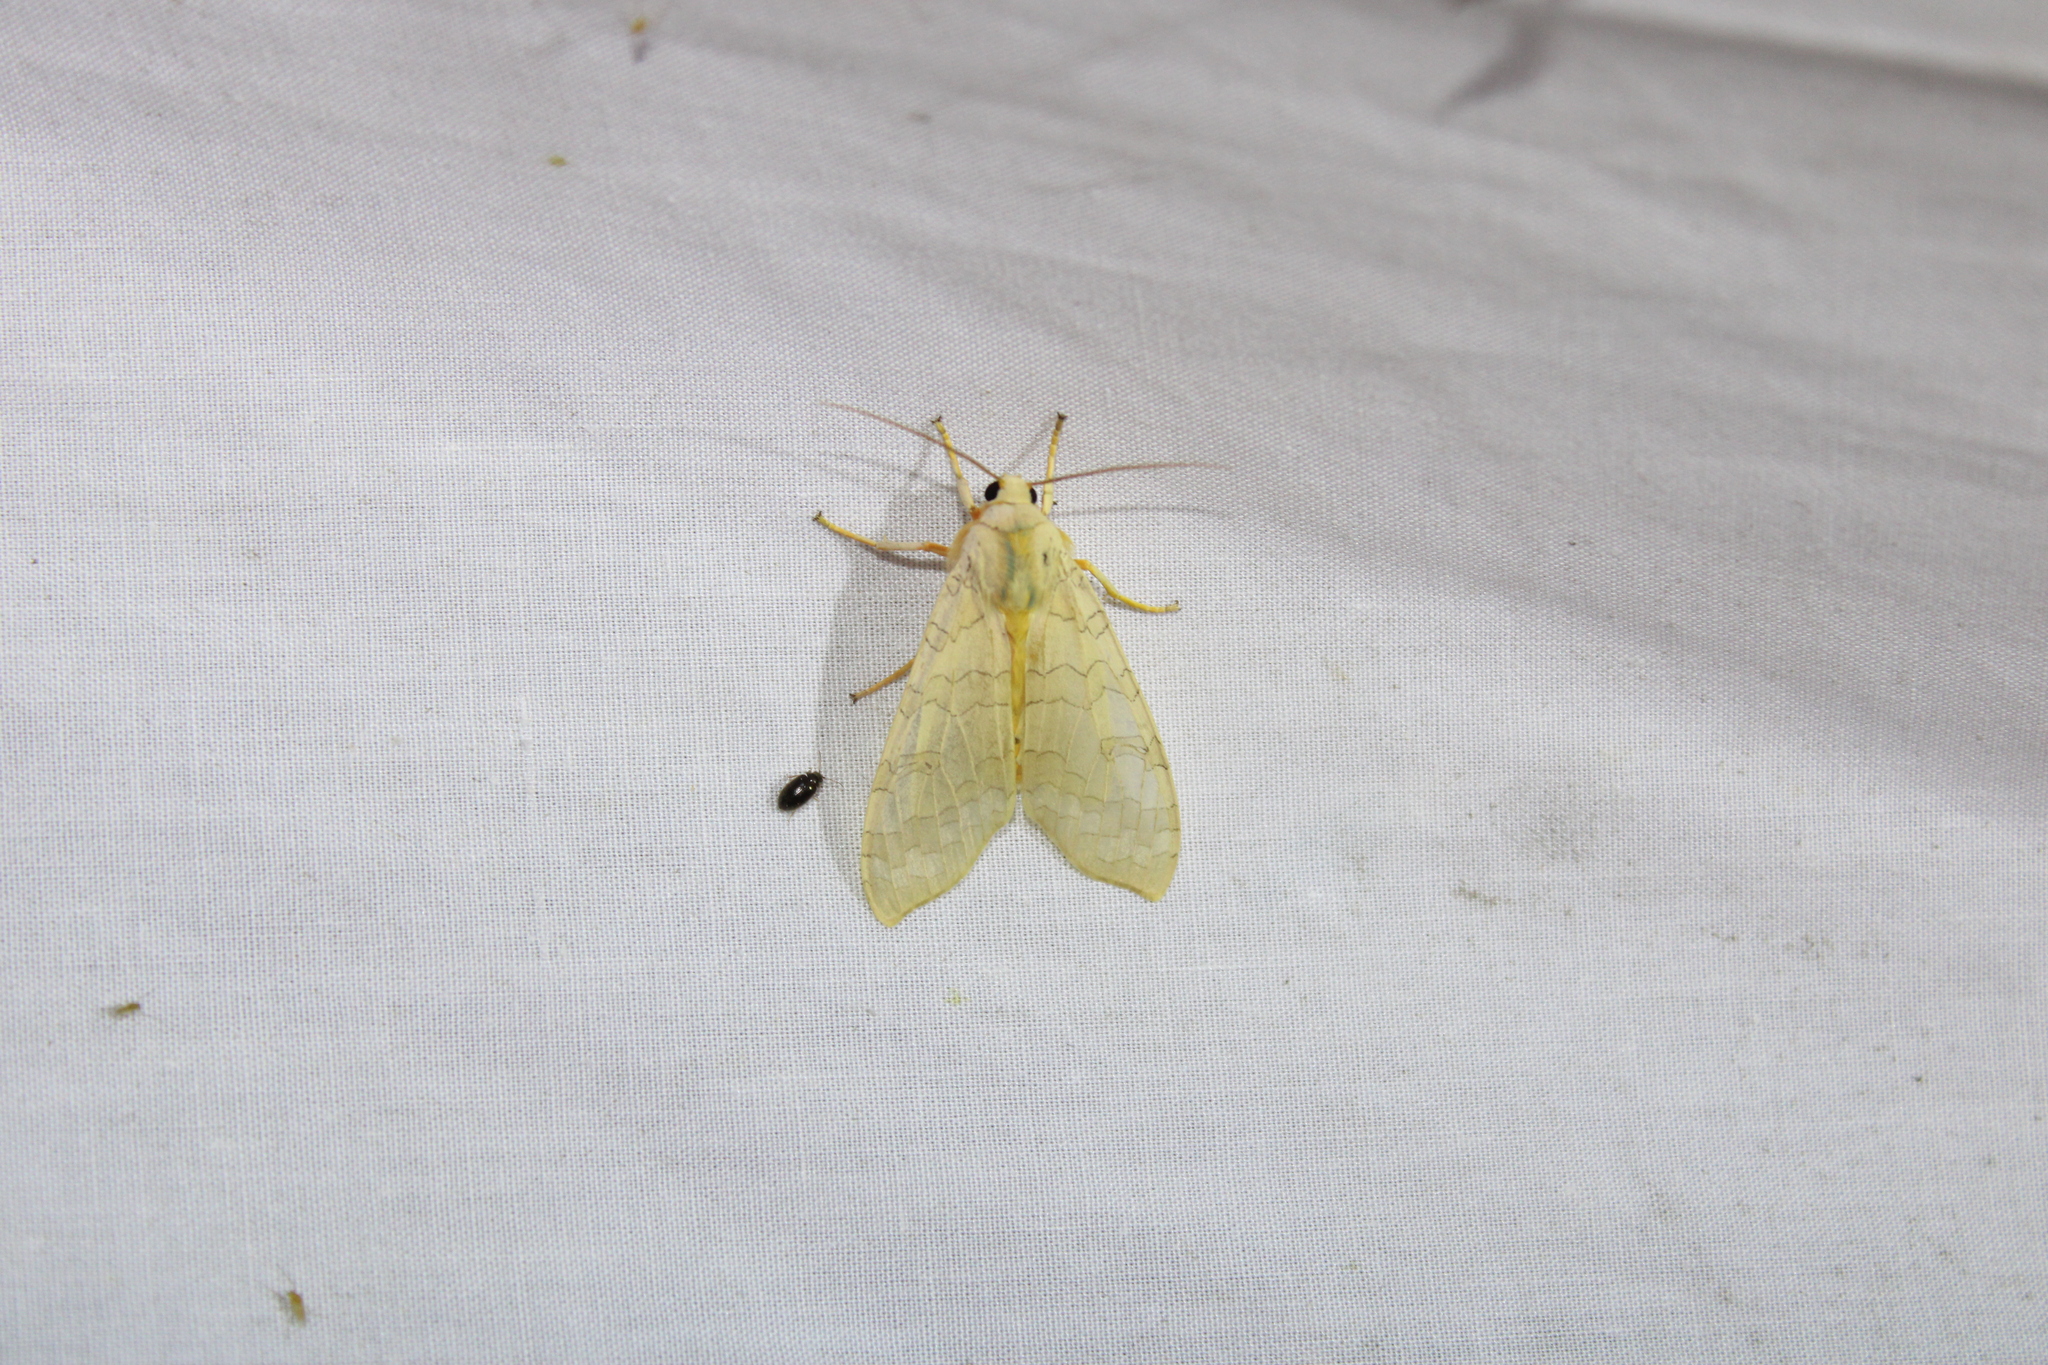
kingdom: Animalia
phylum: Arthropoda
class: Insecta
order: Lepidoptera
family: Erebidae
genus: Halysidota
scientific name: Halysidota
